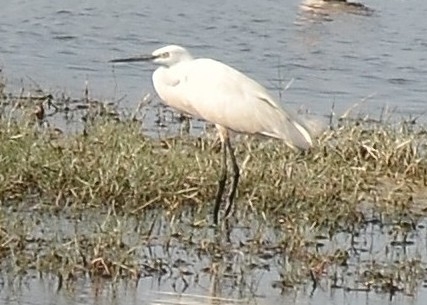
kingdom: Animalia
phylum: Chordata
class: Aves
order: Pelecaniformes
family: Ardeidae
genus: Egretta
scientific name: Egretta garzetta
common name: Little egret
